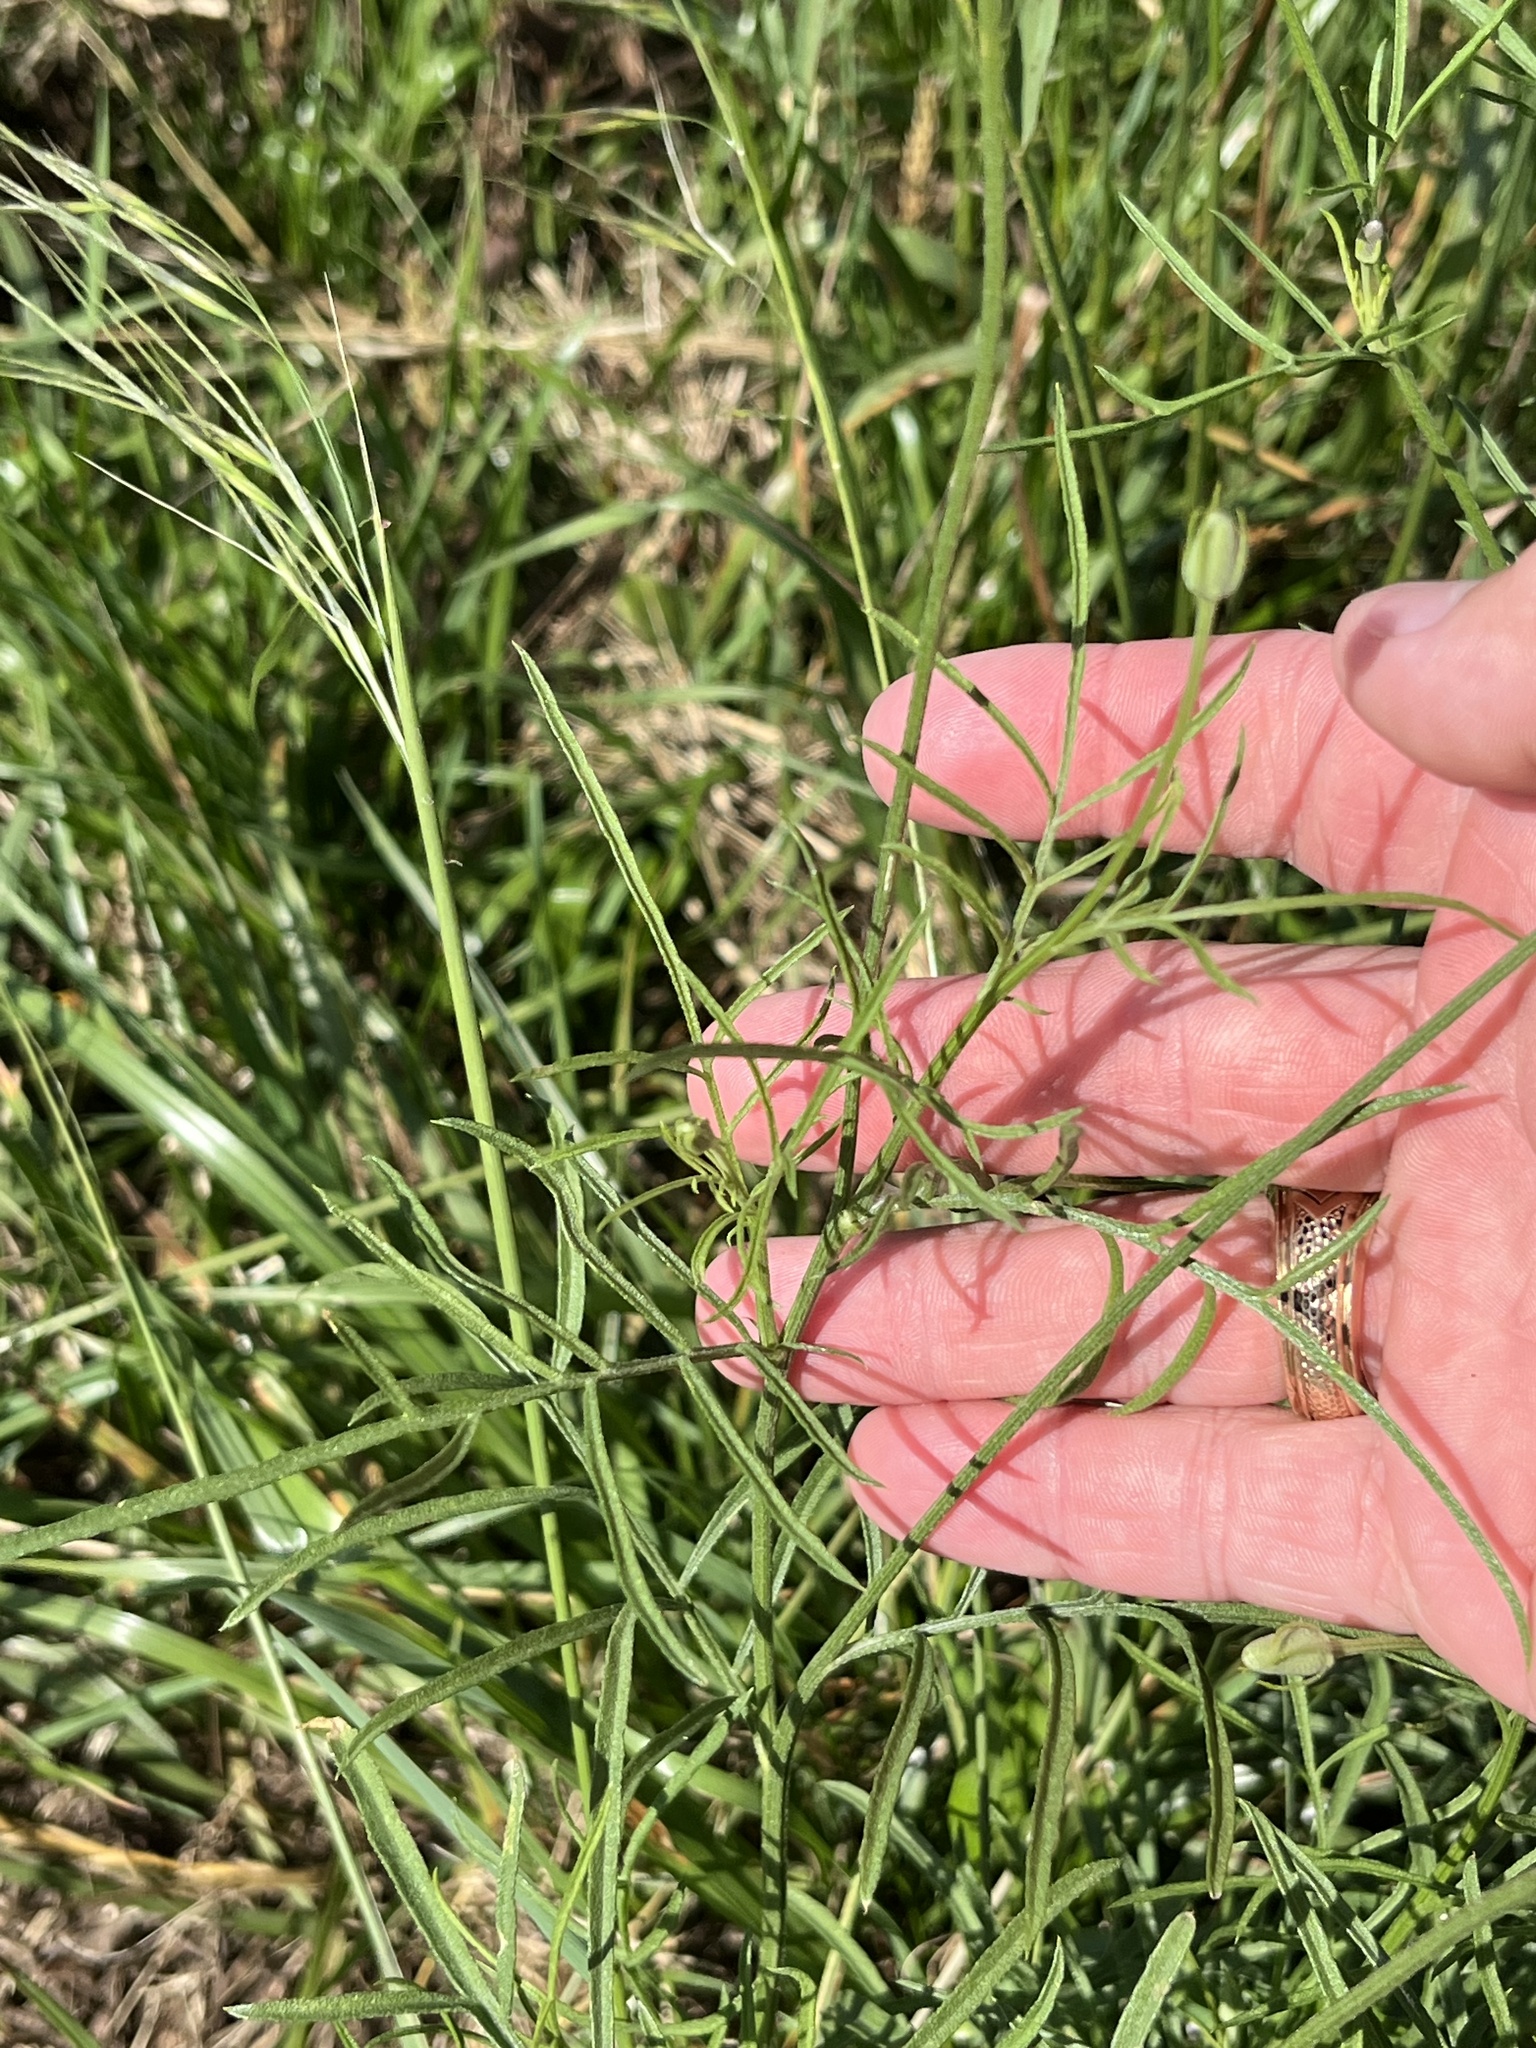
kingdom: Plantae
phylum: Tracheophyta
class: Magnoliopsida
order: Asterales
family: Asteraceae
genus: Ratibida
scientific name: Ratibida columnifera
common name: Prairie coneflower
